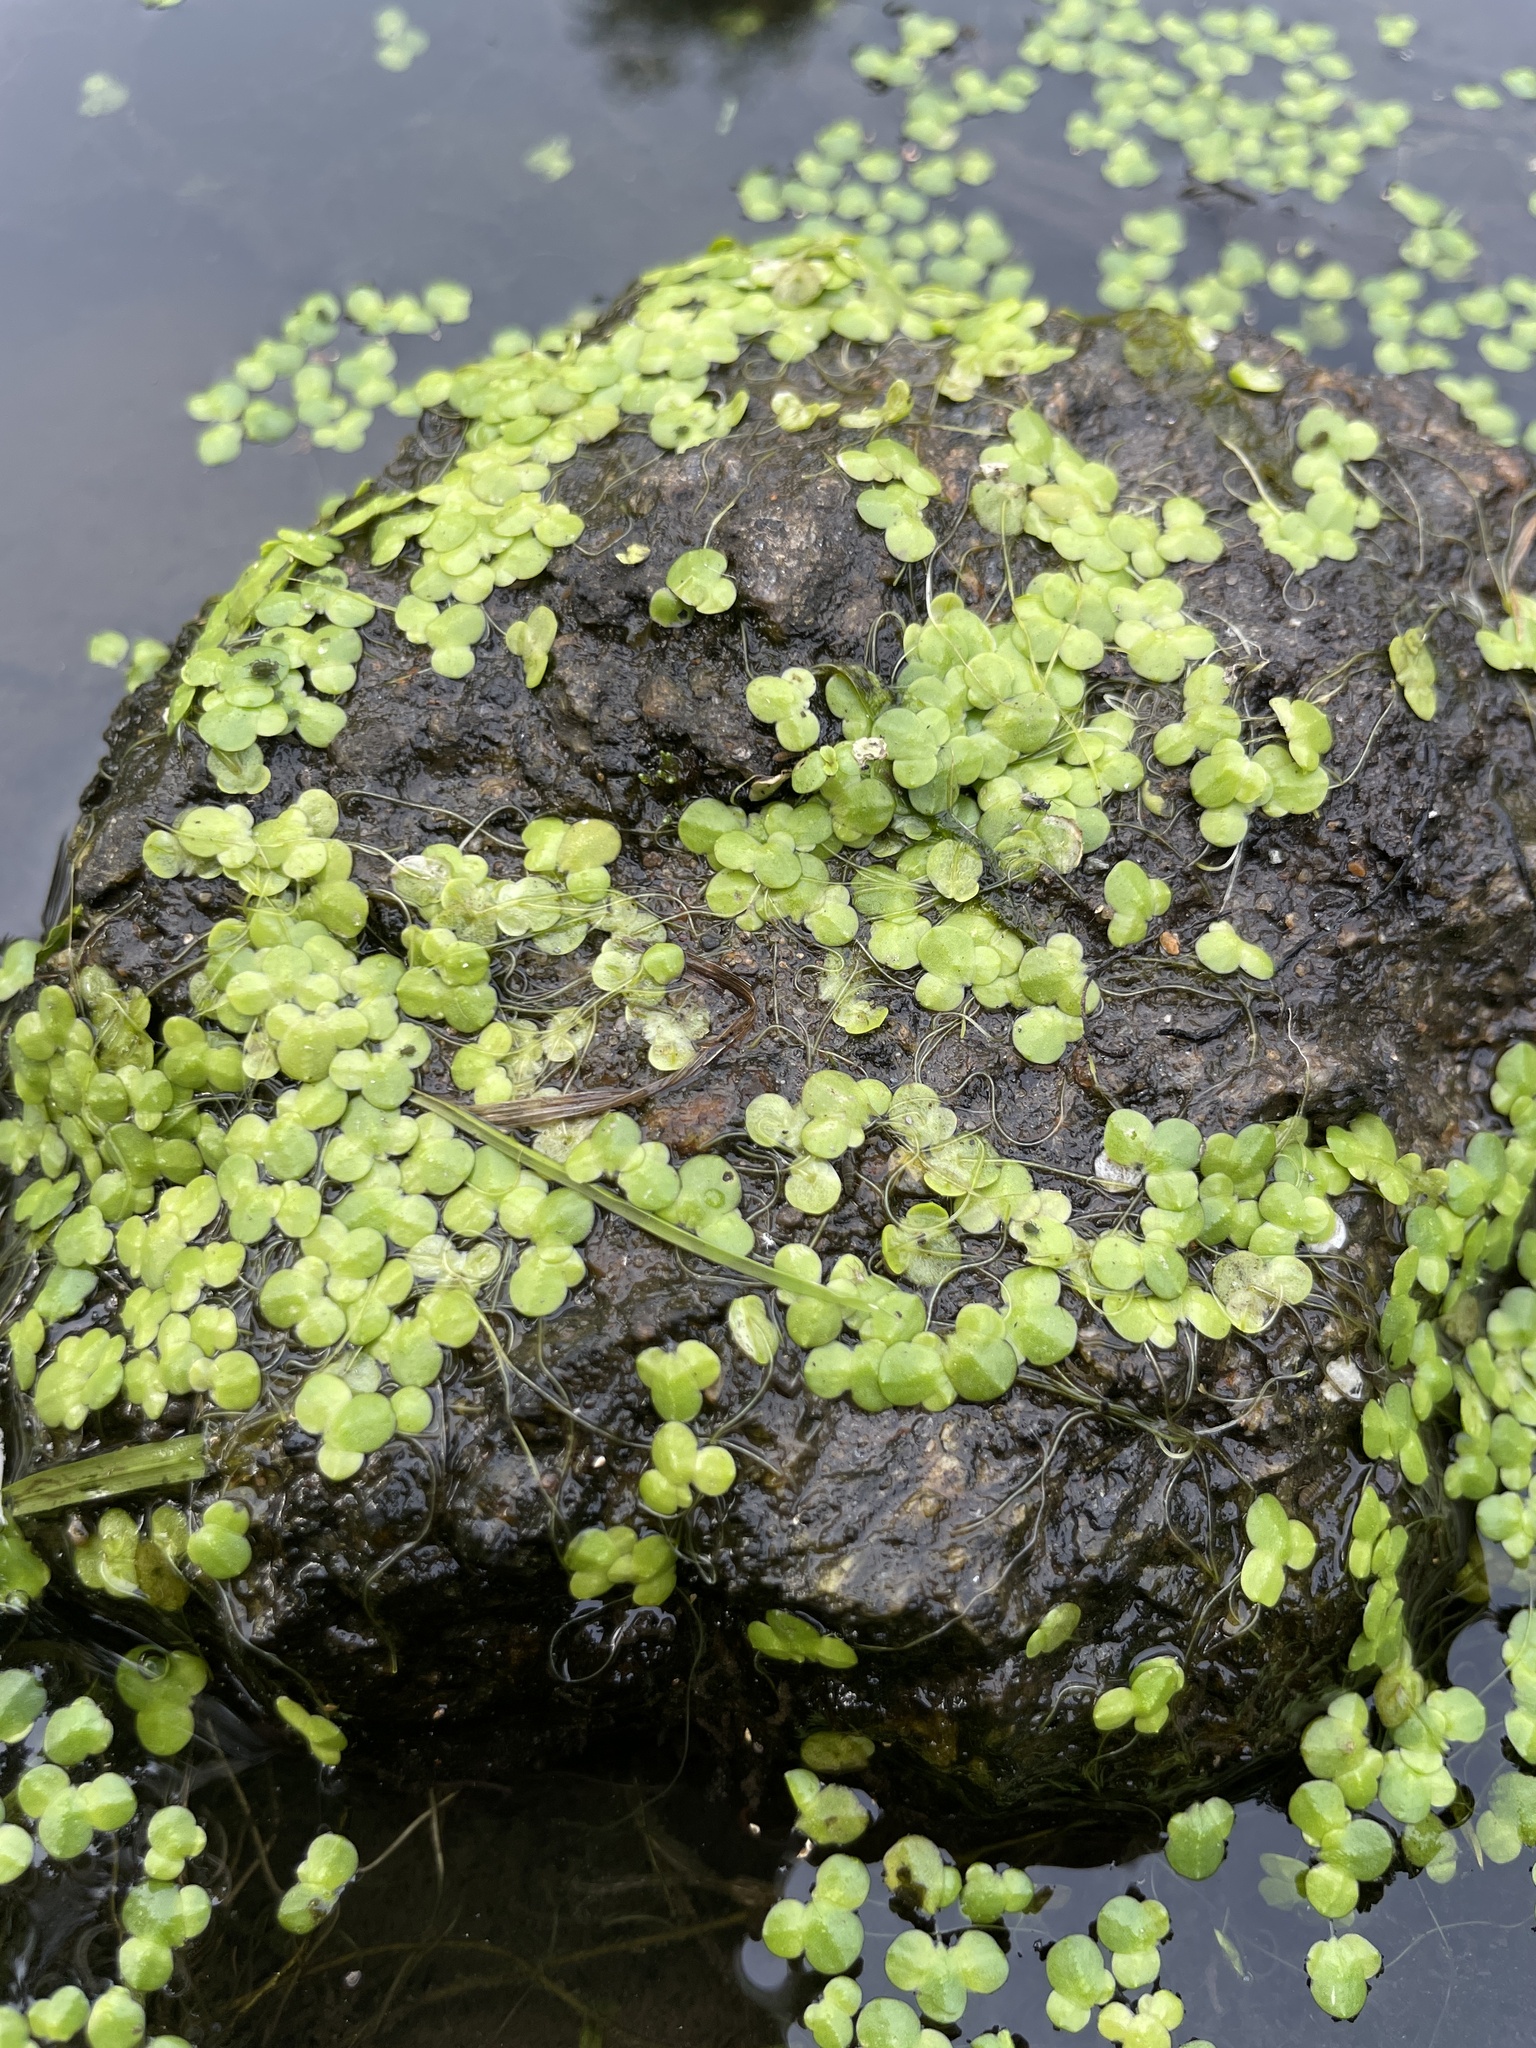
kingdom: Plantae
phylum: Tracheophyta
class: Liliopsida
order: Alismatales
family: Araceae
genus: Lemna
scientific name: Lemna minor
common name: Common duckweed
